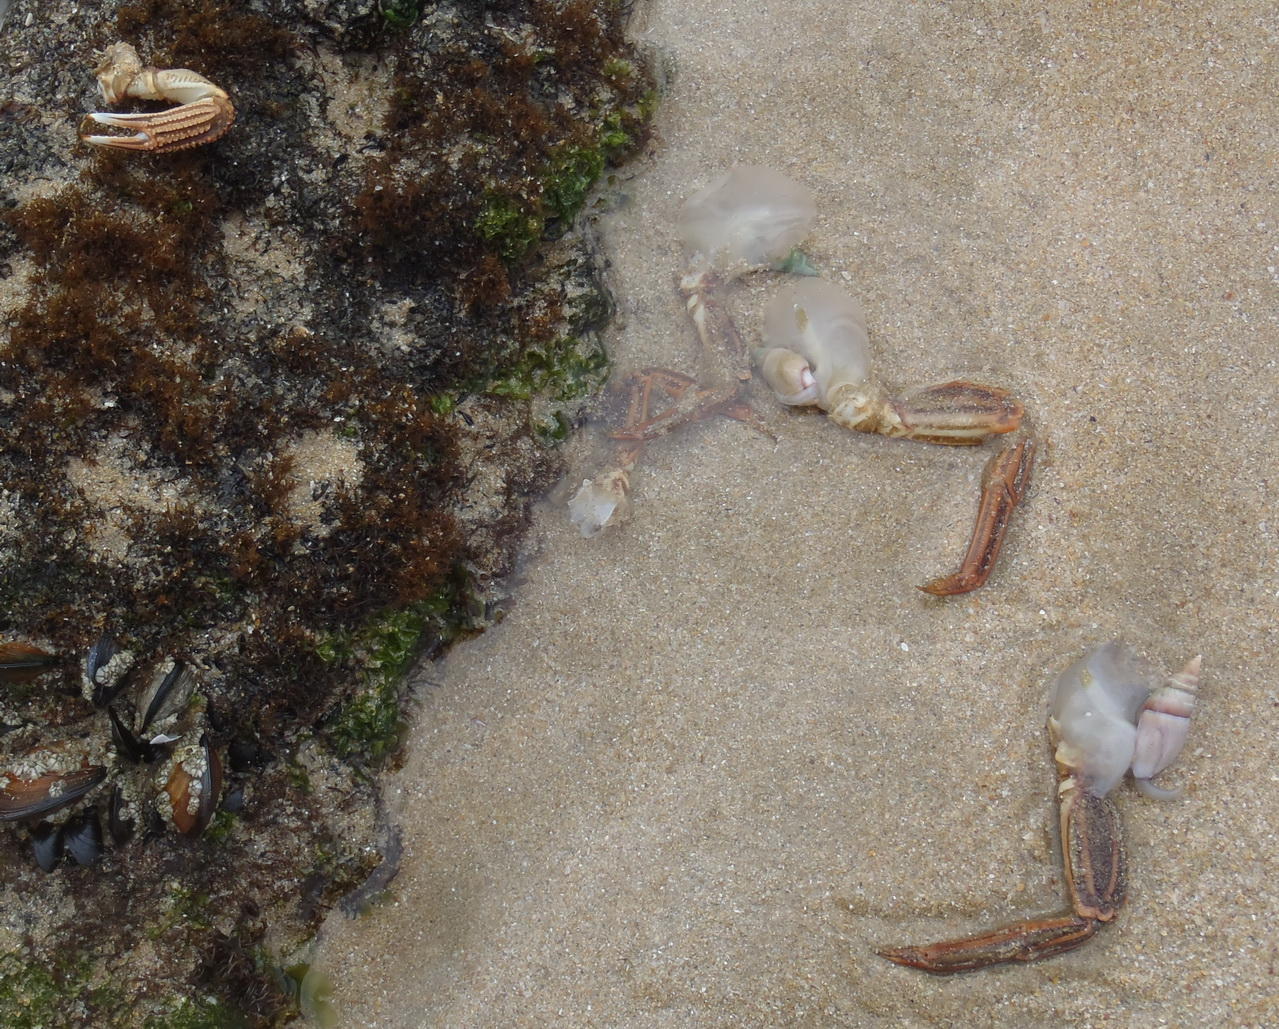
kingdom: Animalia
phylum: Arthropoda
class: Malacostraca
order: Decapoda
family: Plagusiidae
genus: Guinusia
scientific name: Guinusia chabrus
